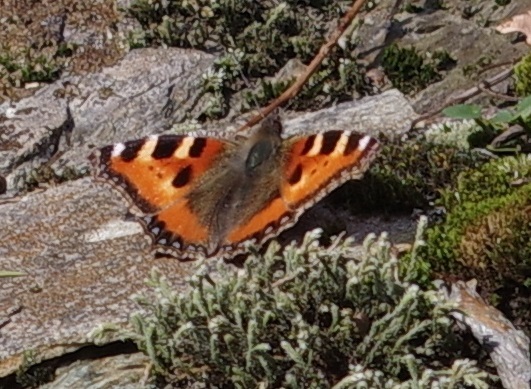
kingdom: Animalia
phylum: Arthropoda
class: Insecta
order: Lepidoptera
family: Nymphalidae
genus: Aglais
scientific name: Aglais urticae
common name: Small tortoiseshell
